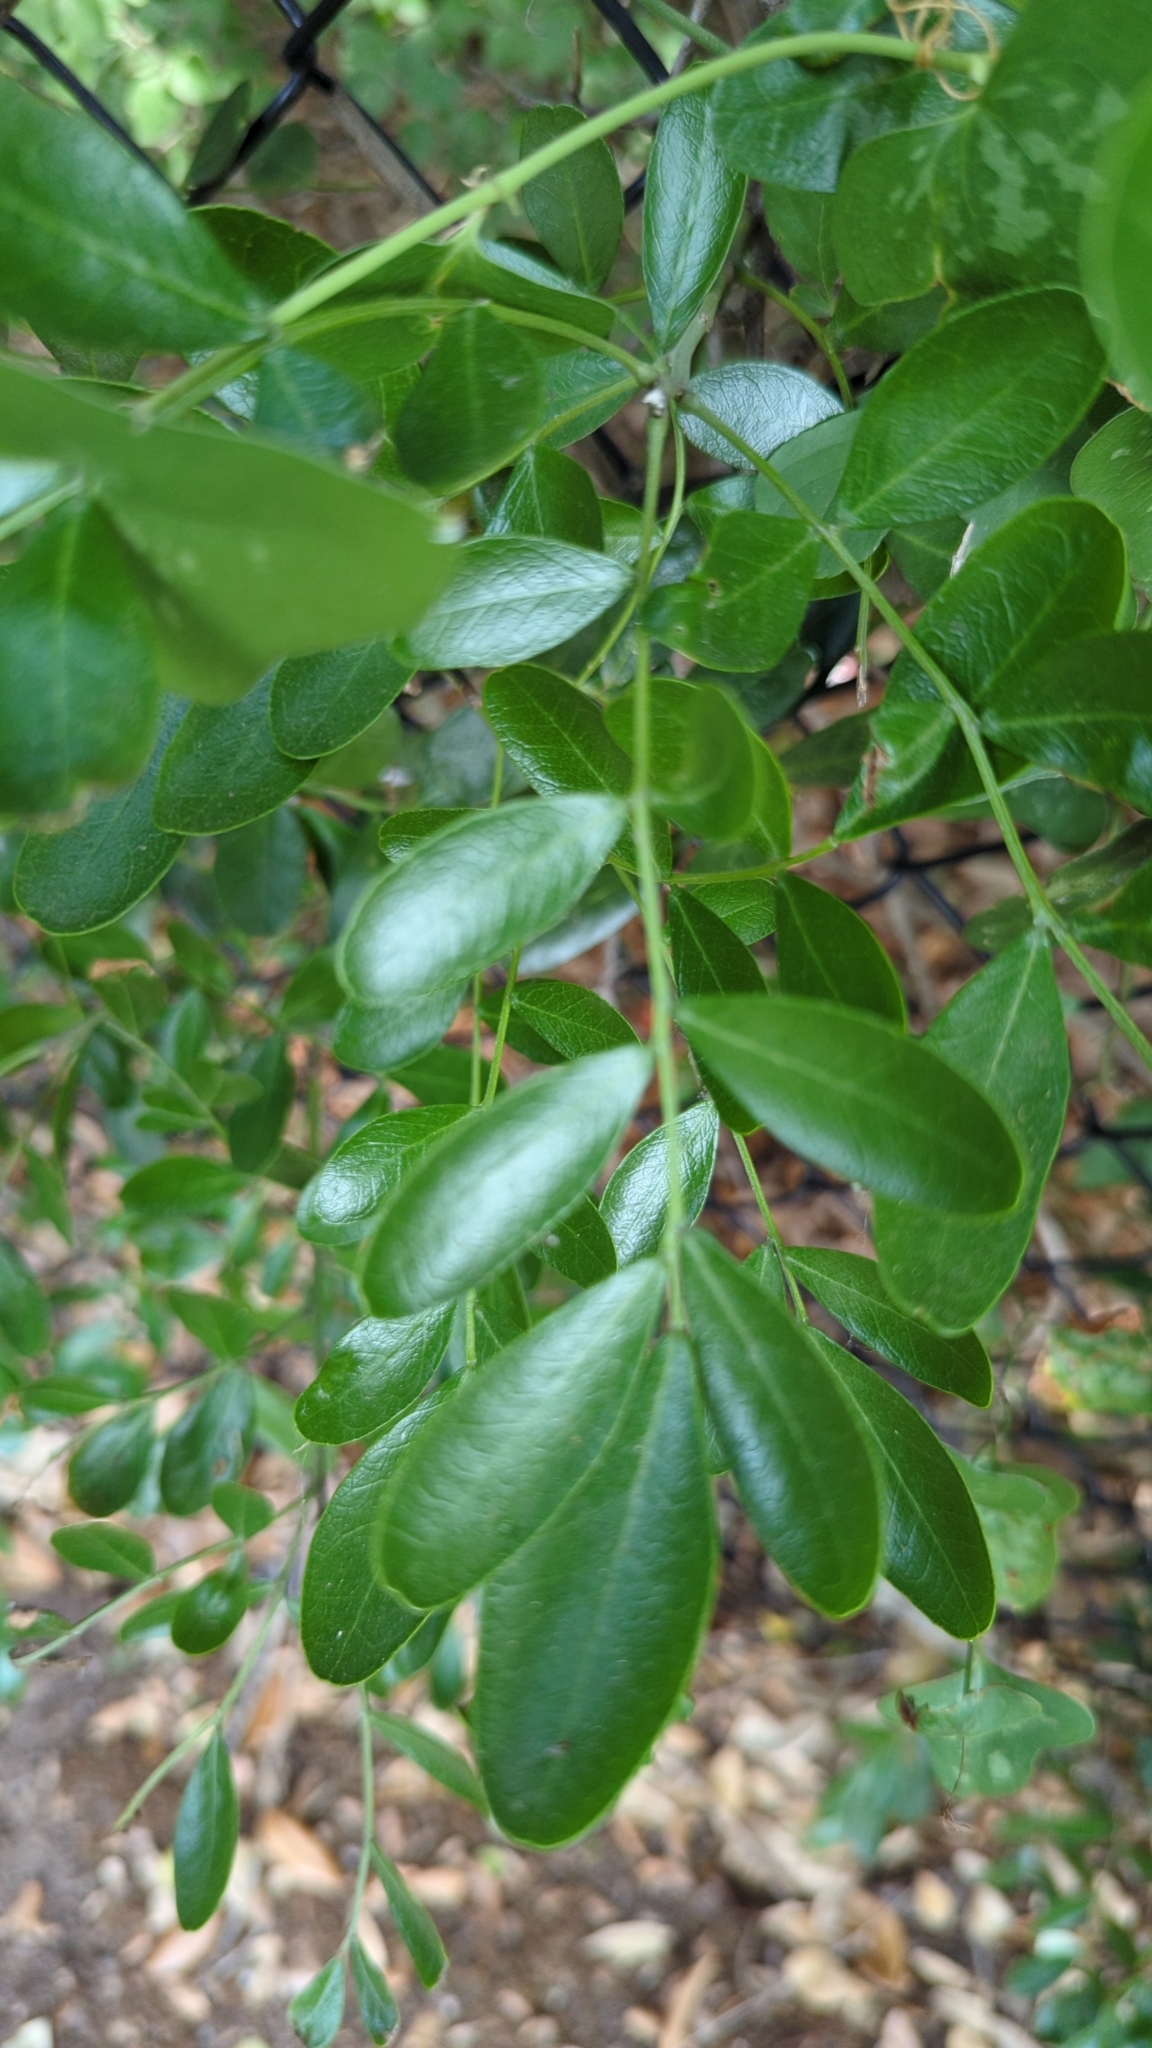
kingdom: Plantae
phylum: Tracheophyta
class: Magnoliopsida
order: Fabales
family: Fabaceae
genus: Dermatophyllum
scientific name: Dermatophyllum secundiflorum
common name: Texas-mountain-laurel
